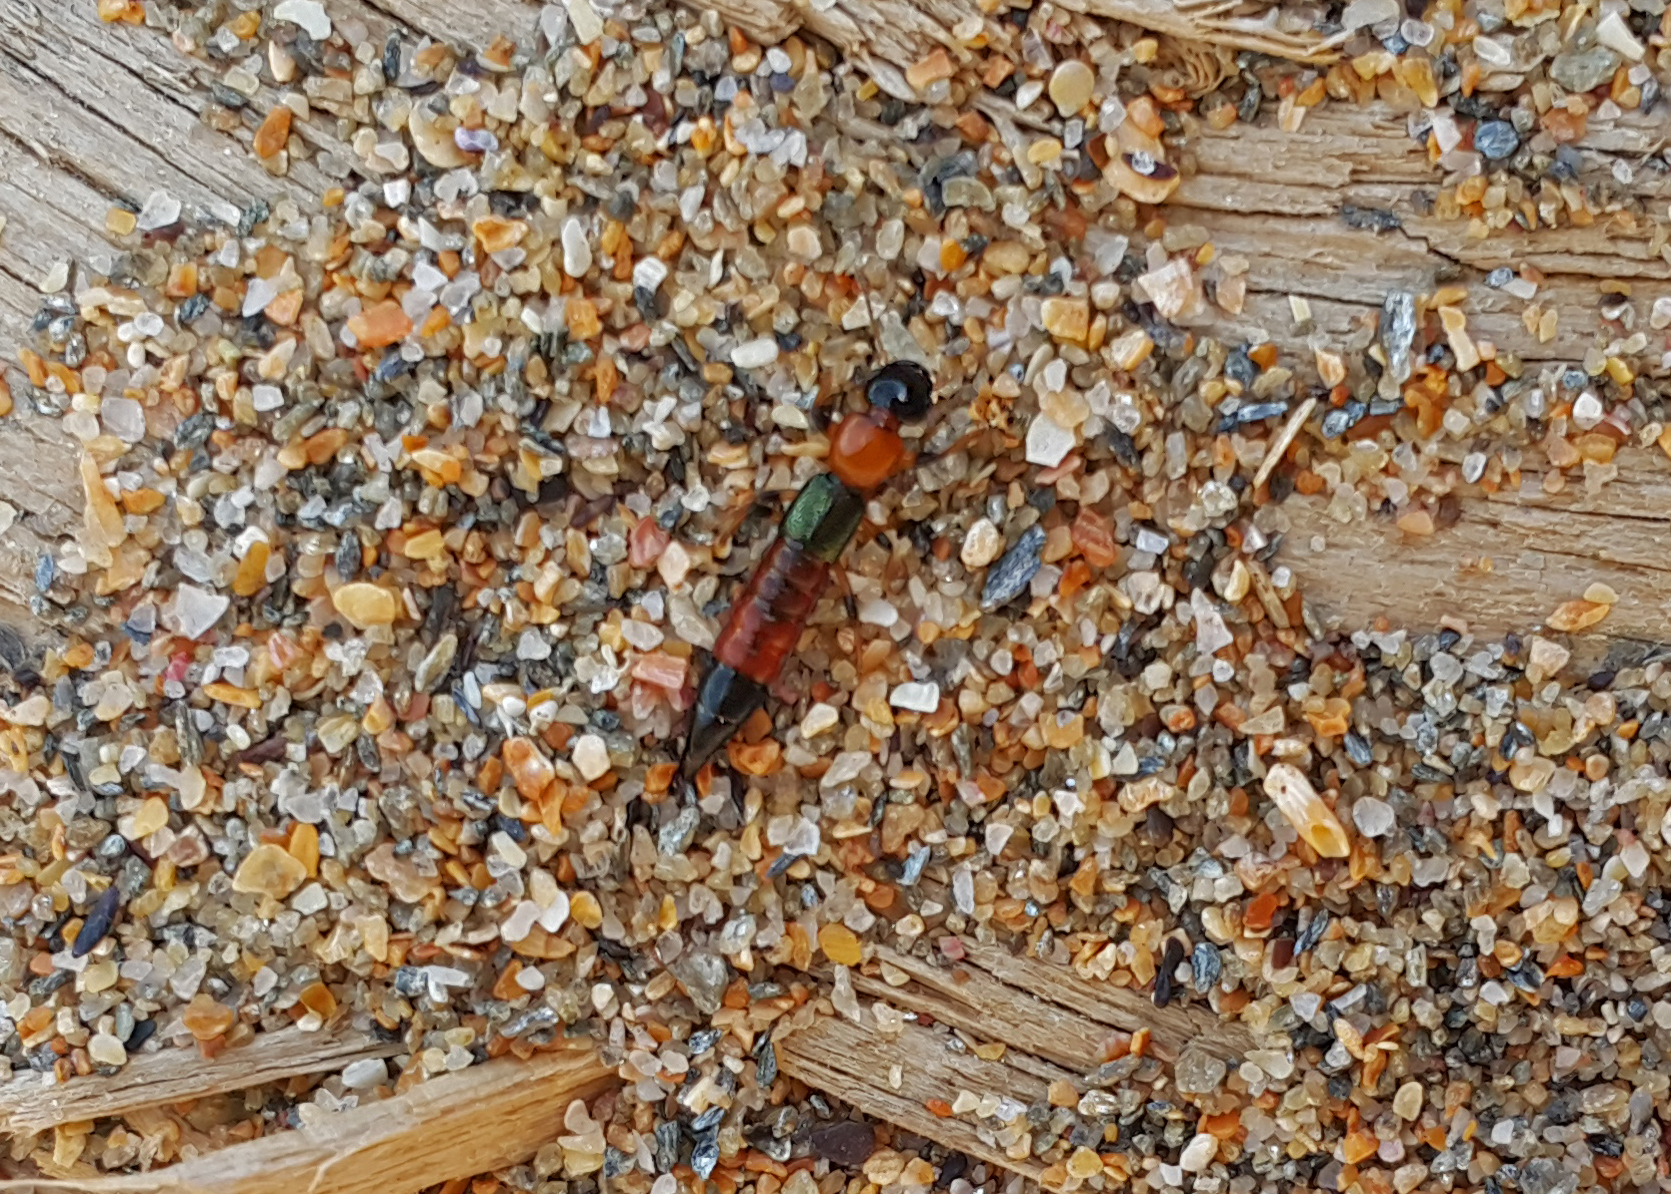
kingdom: Animalia
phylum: Arthropoda
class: Insecta
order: Coleoptera
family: Staphylinidae
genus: Paederus
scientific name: Paederus littoralis
